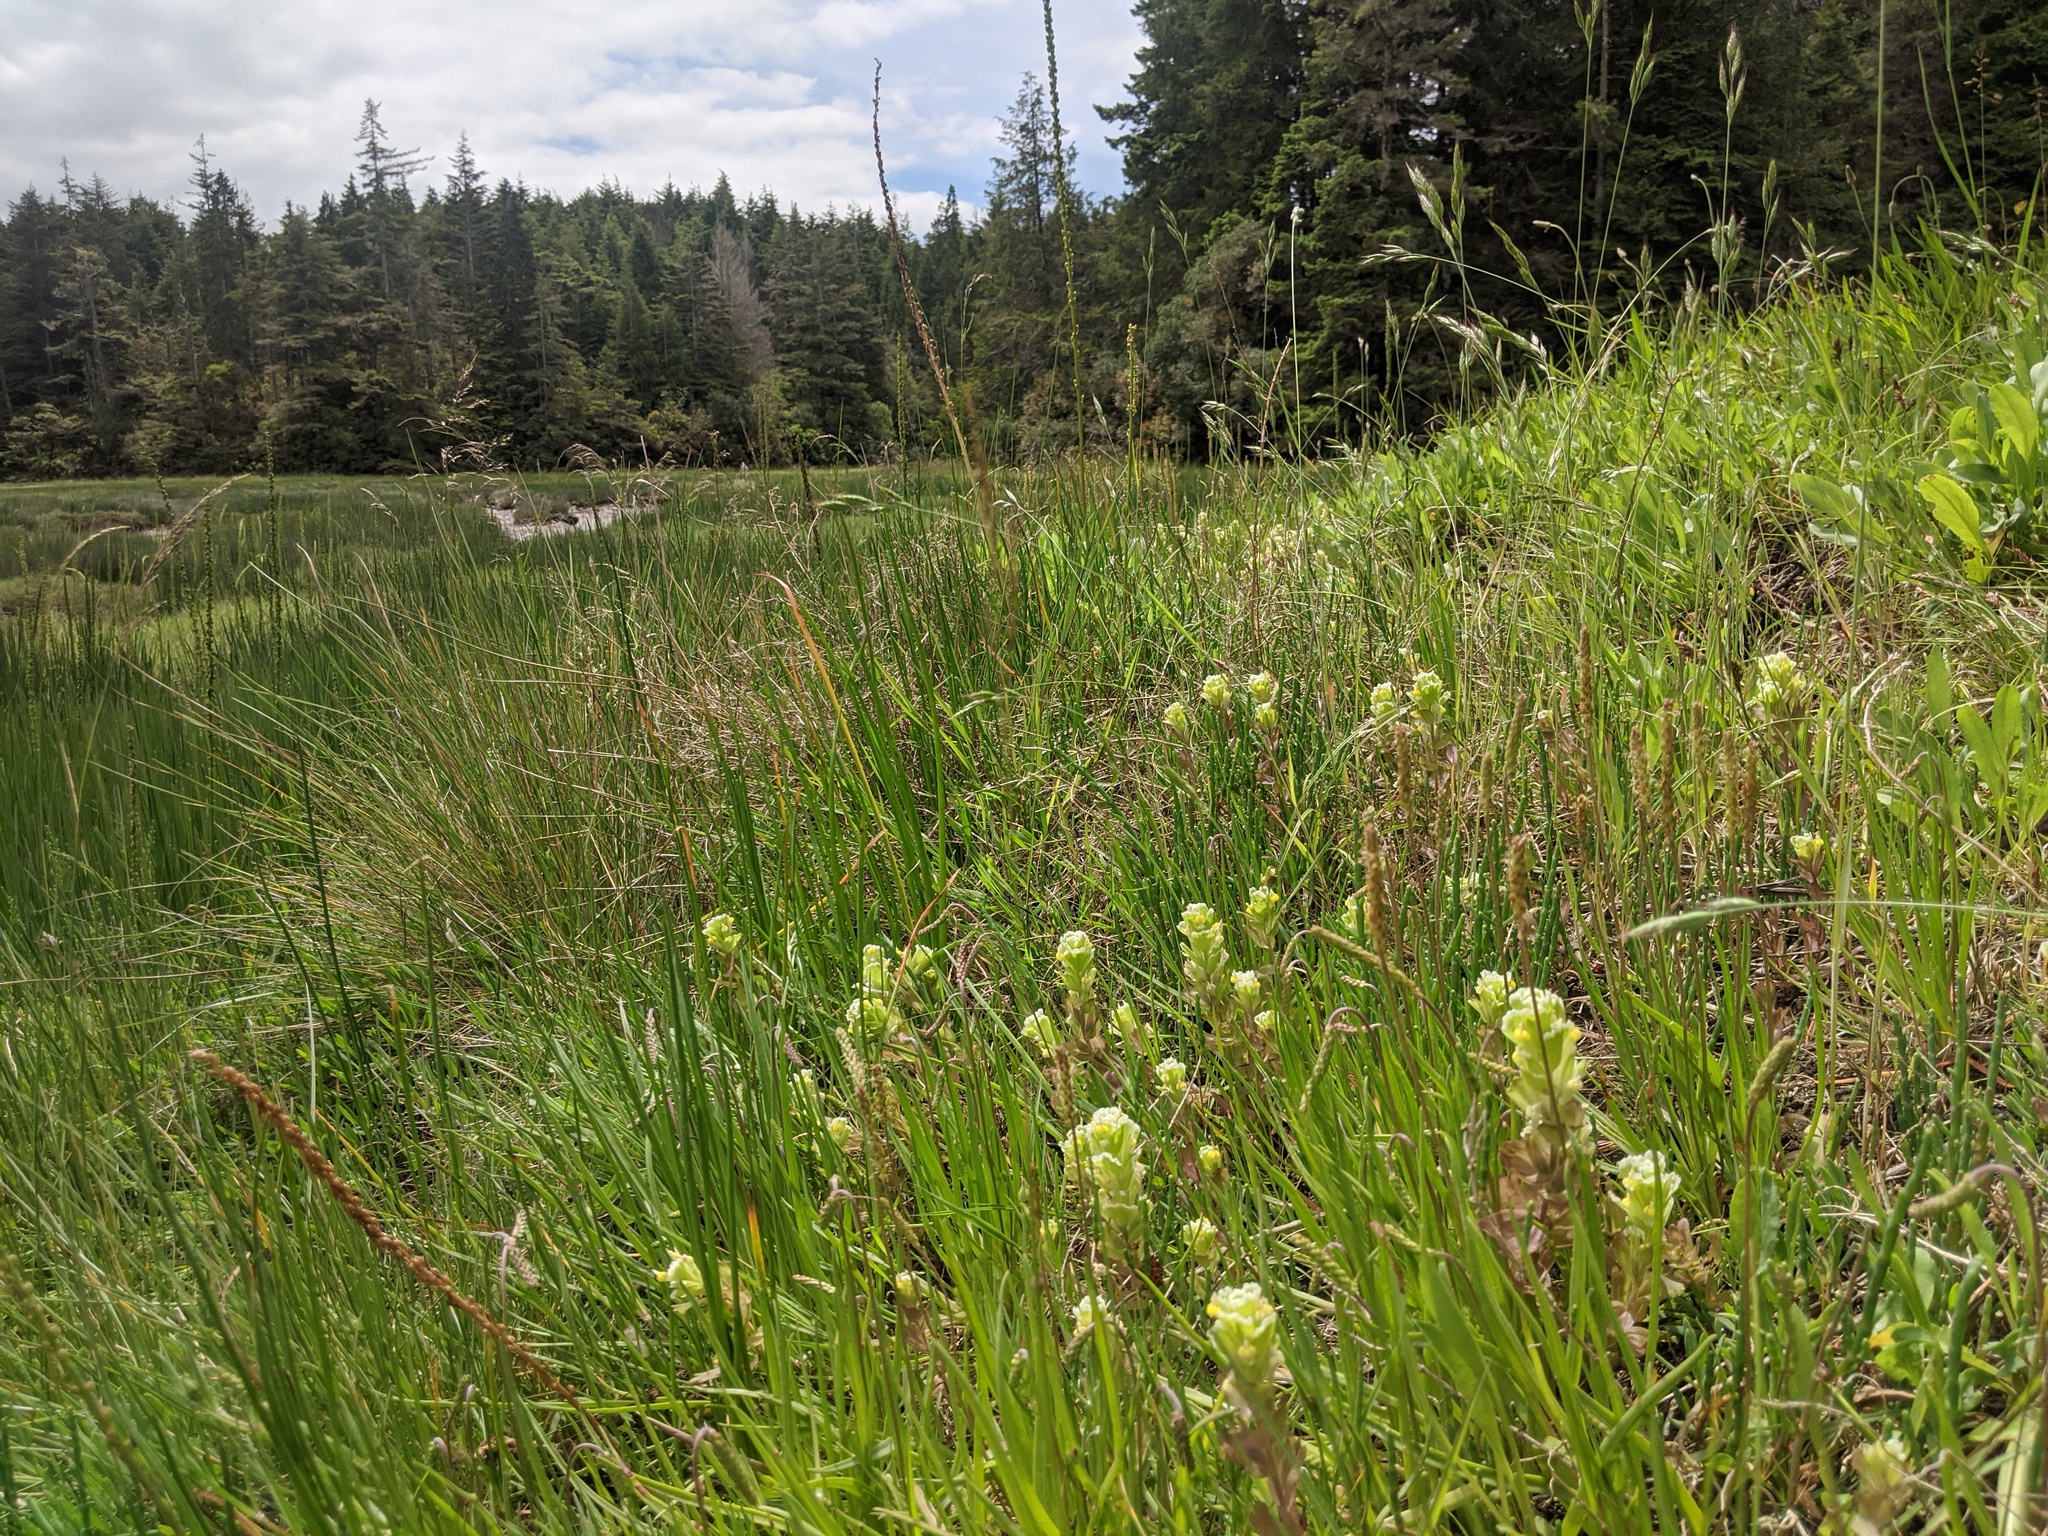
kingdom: Plantae
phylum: Tracheophyta
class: Magnoliopsida
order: Lamiales
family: Orobanchaceae
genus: Castilleja
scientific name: Castilleja ambigua
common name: Johnny-nip
